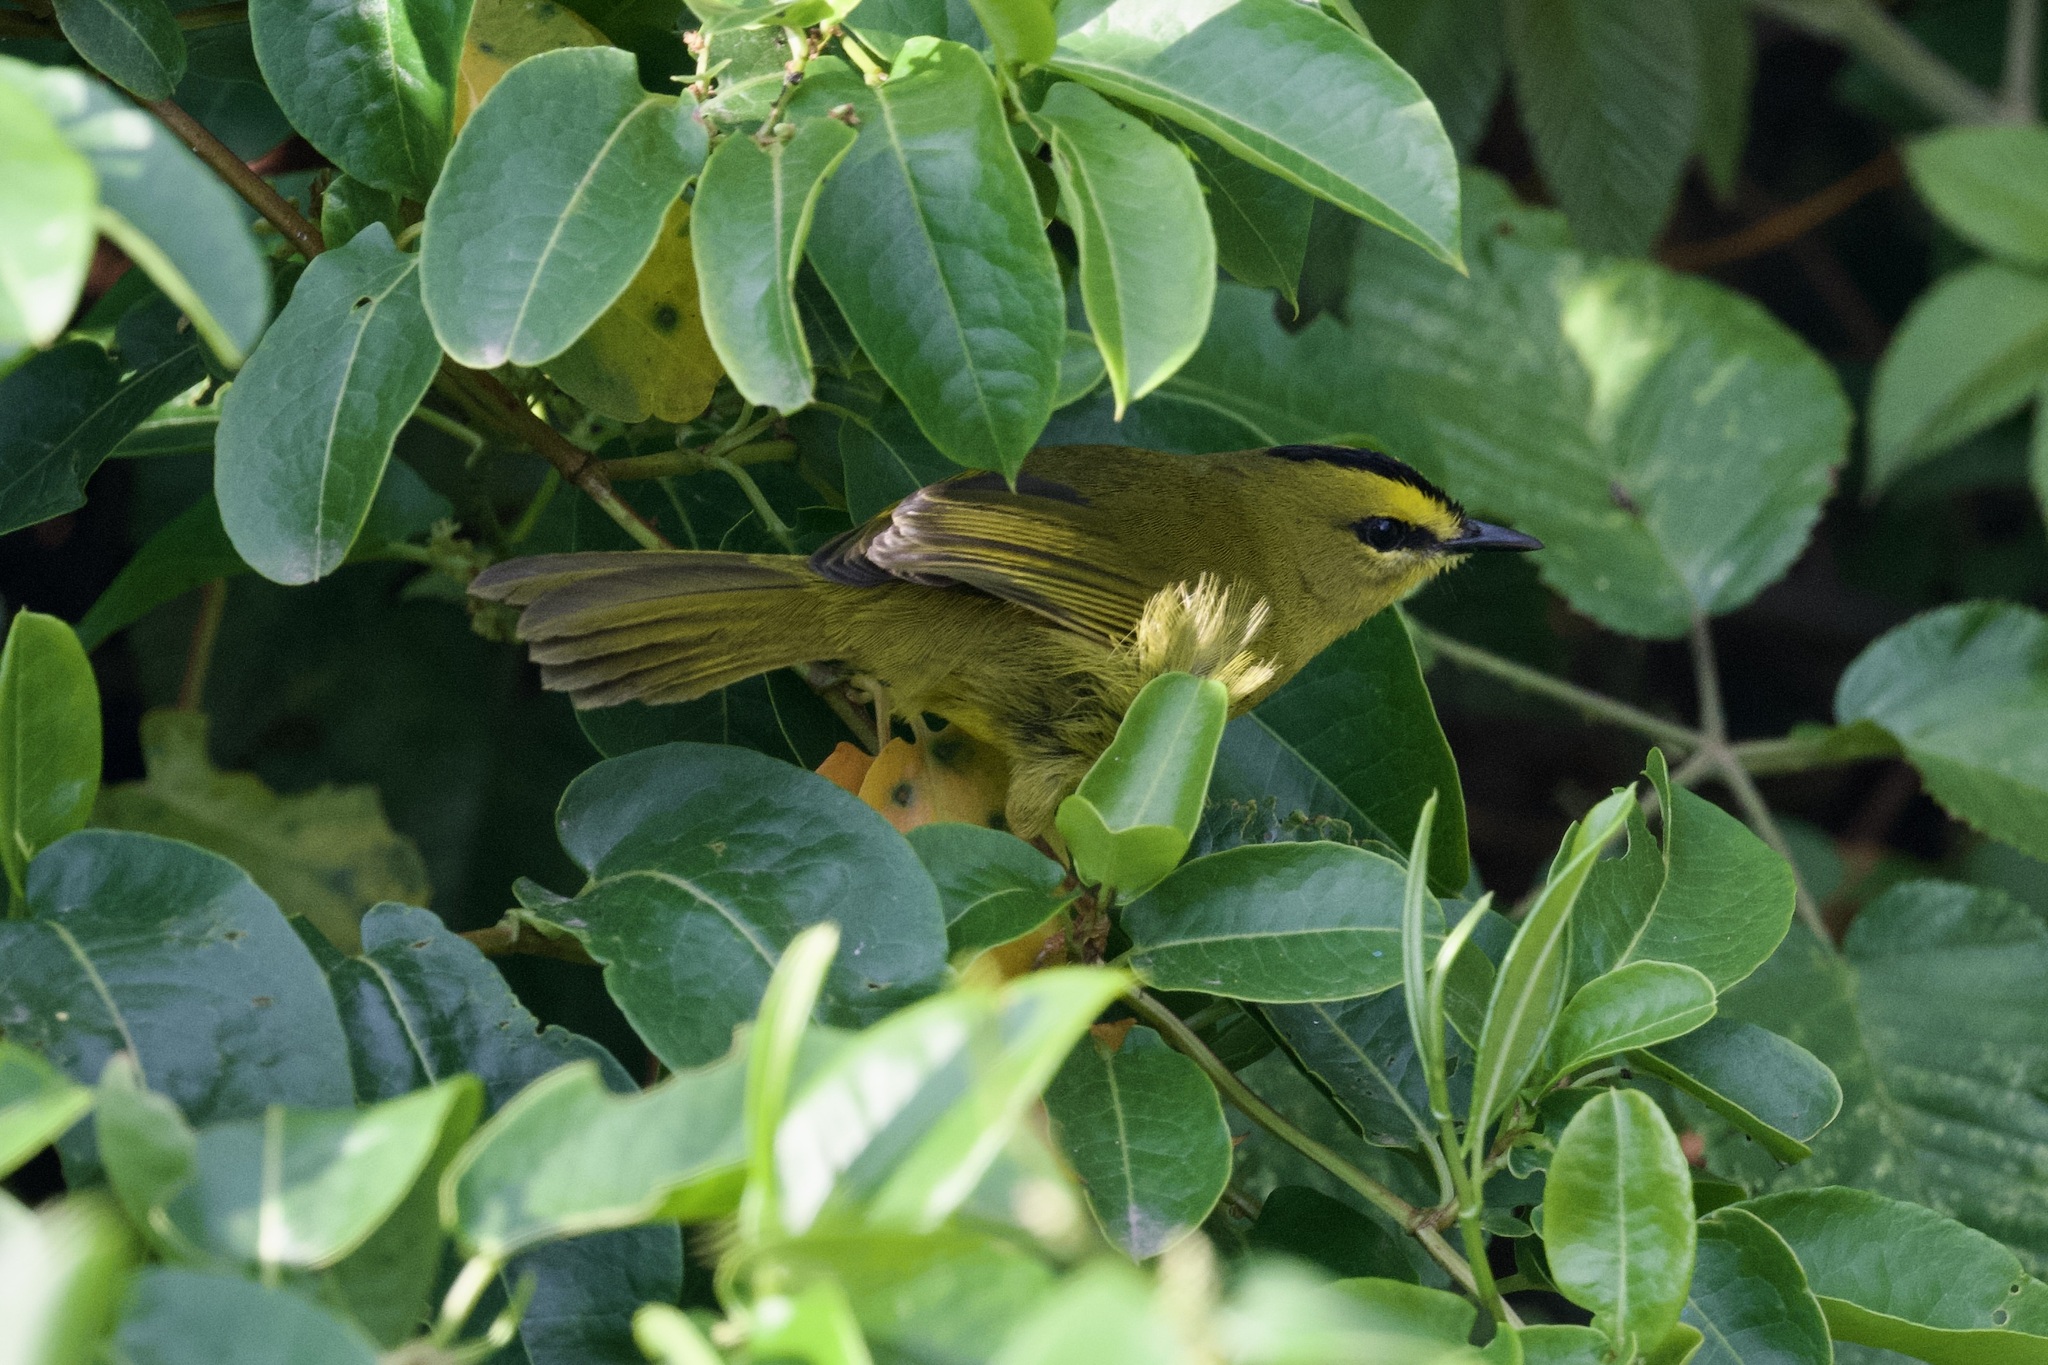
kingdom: Animalia
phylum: Chordata
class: Aves
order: Passeriformes
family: Parulidae
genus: Myiothlypis
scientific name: Myiothlypis nigrocristata
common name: Black-crested warbler
